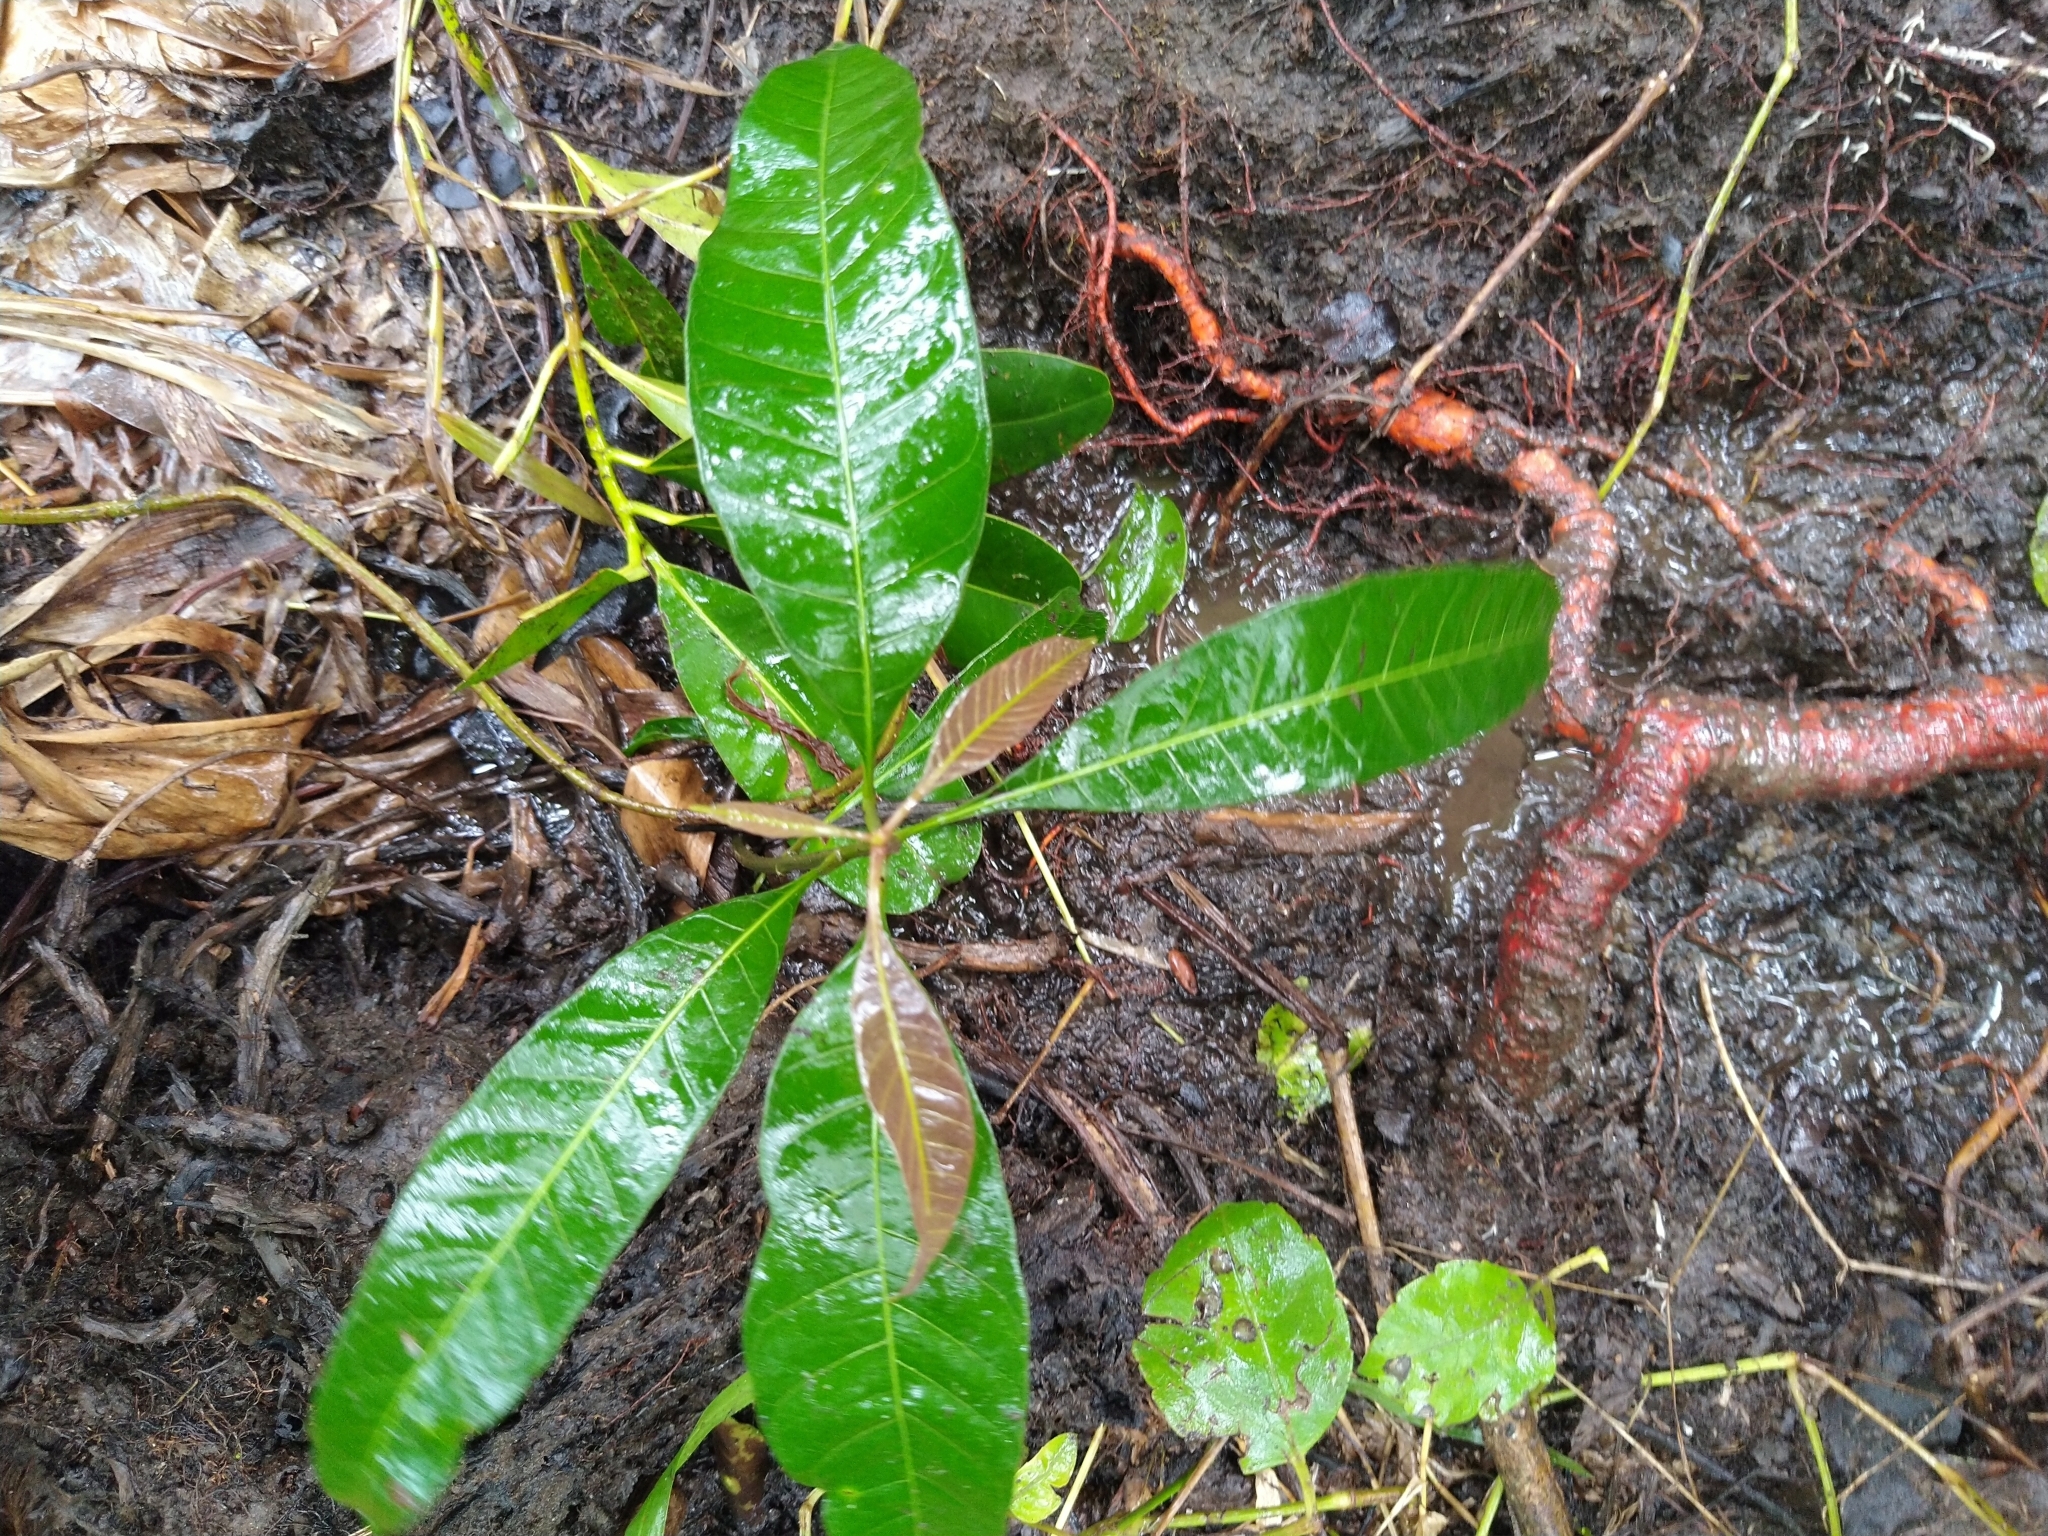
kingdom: Plantae
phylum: Tracheophyta
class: Magnoliopsida
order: Sapindales
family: Anacardiaceae
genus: Mangifera
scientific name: Mangifera indica
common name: Mango
